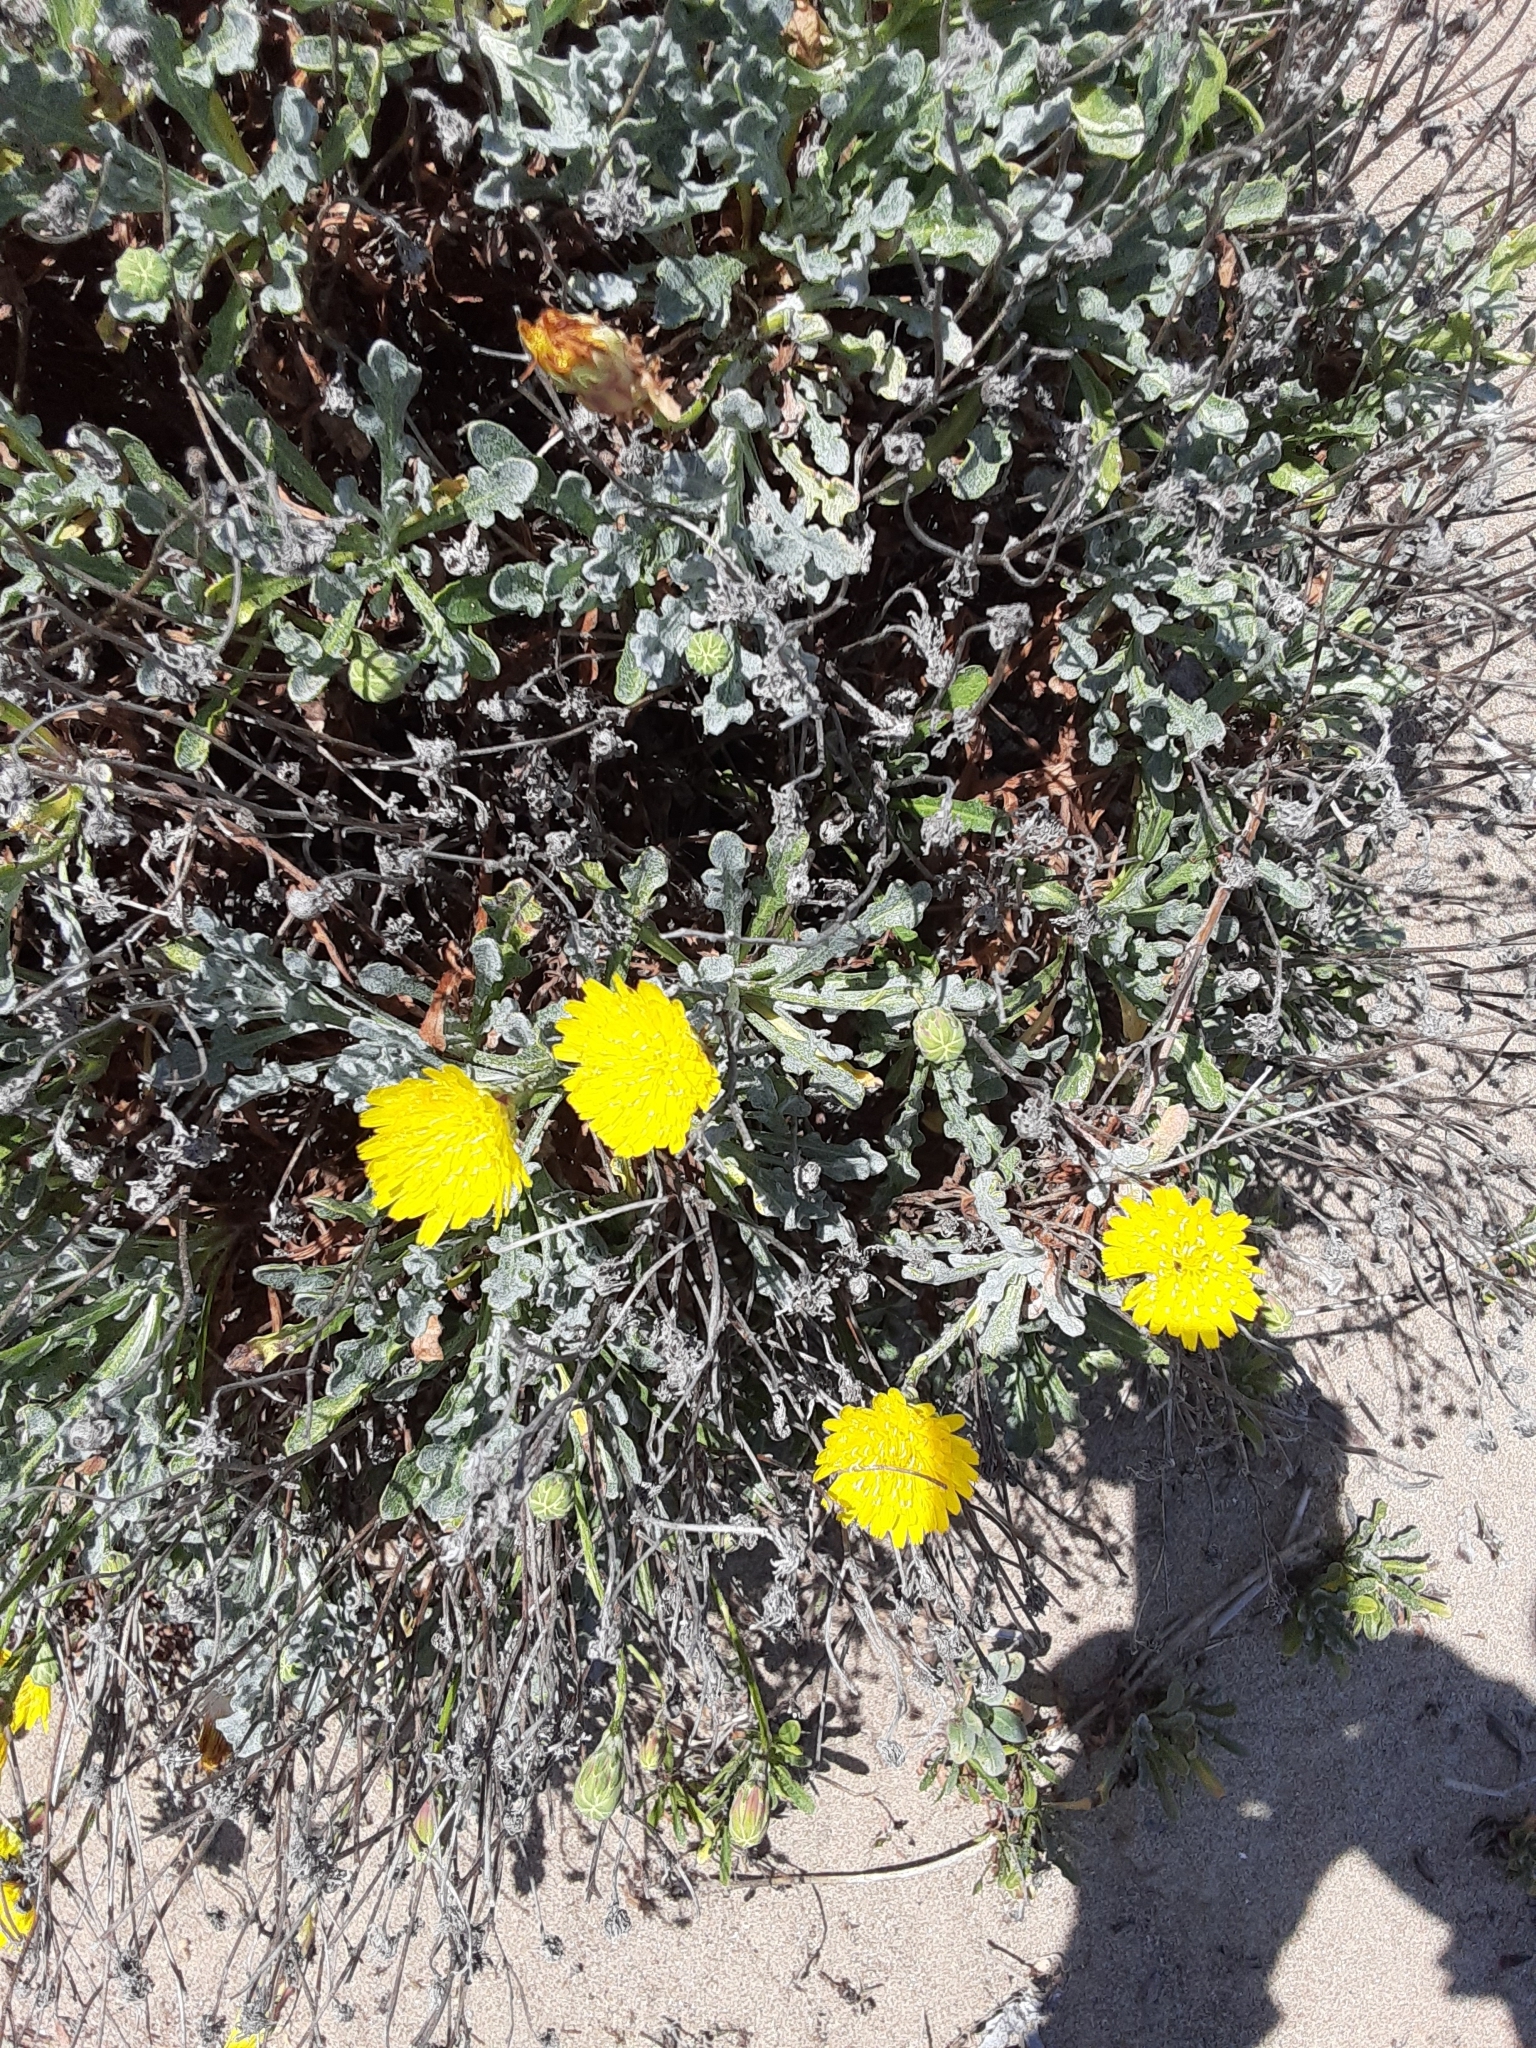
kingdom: Plantae
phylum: Tracheophyta
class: Magnoliopsida
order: Asterales
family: Asteraceae
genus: Malacothrix
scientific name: Malacothrix incana
